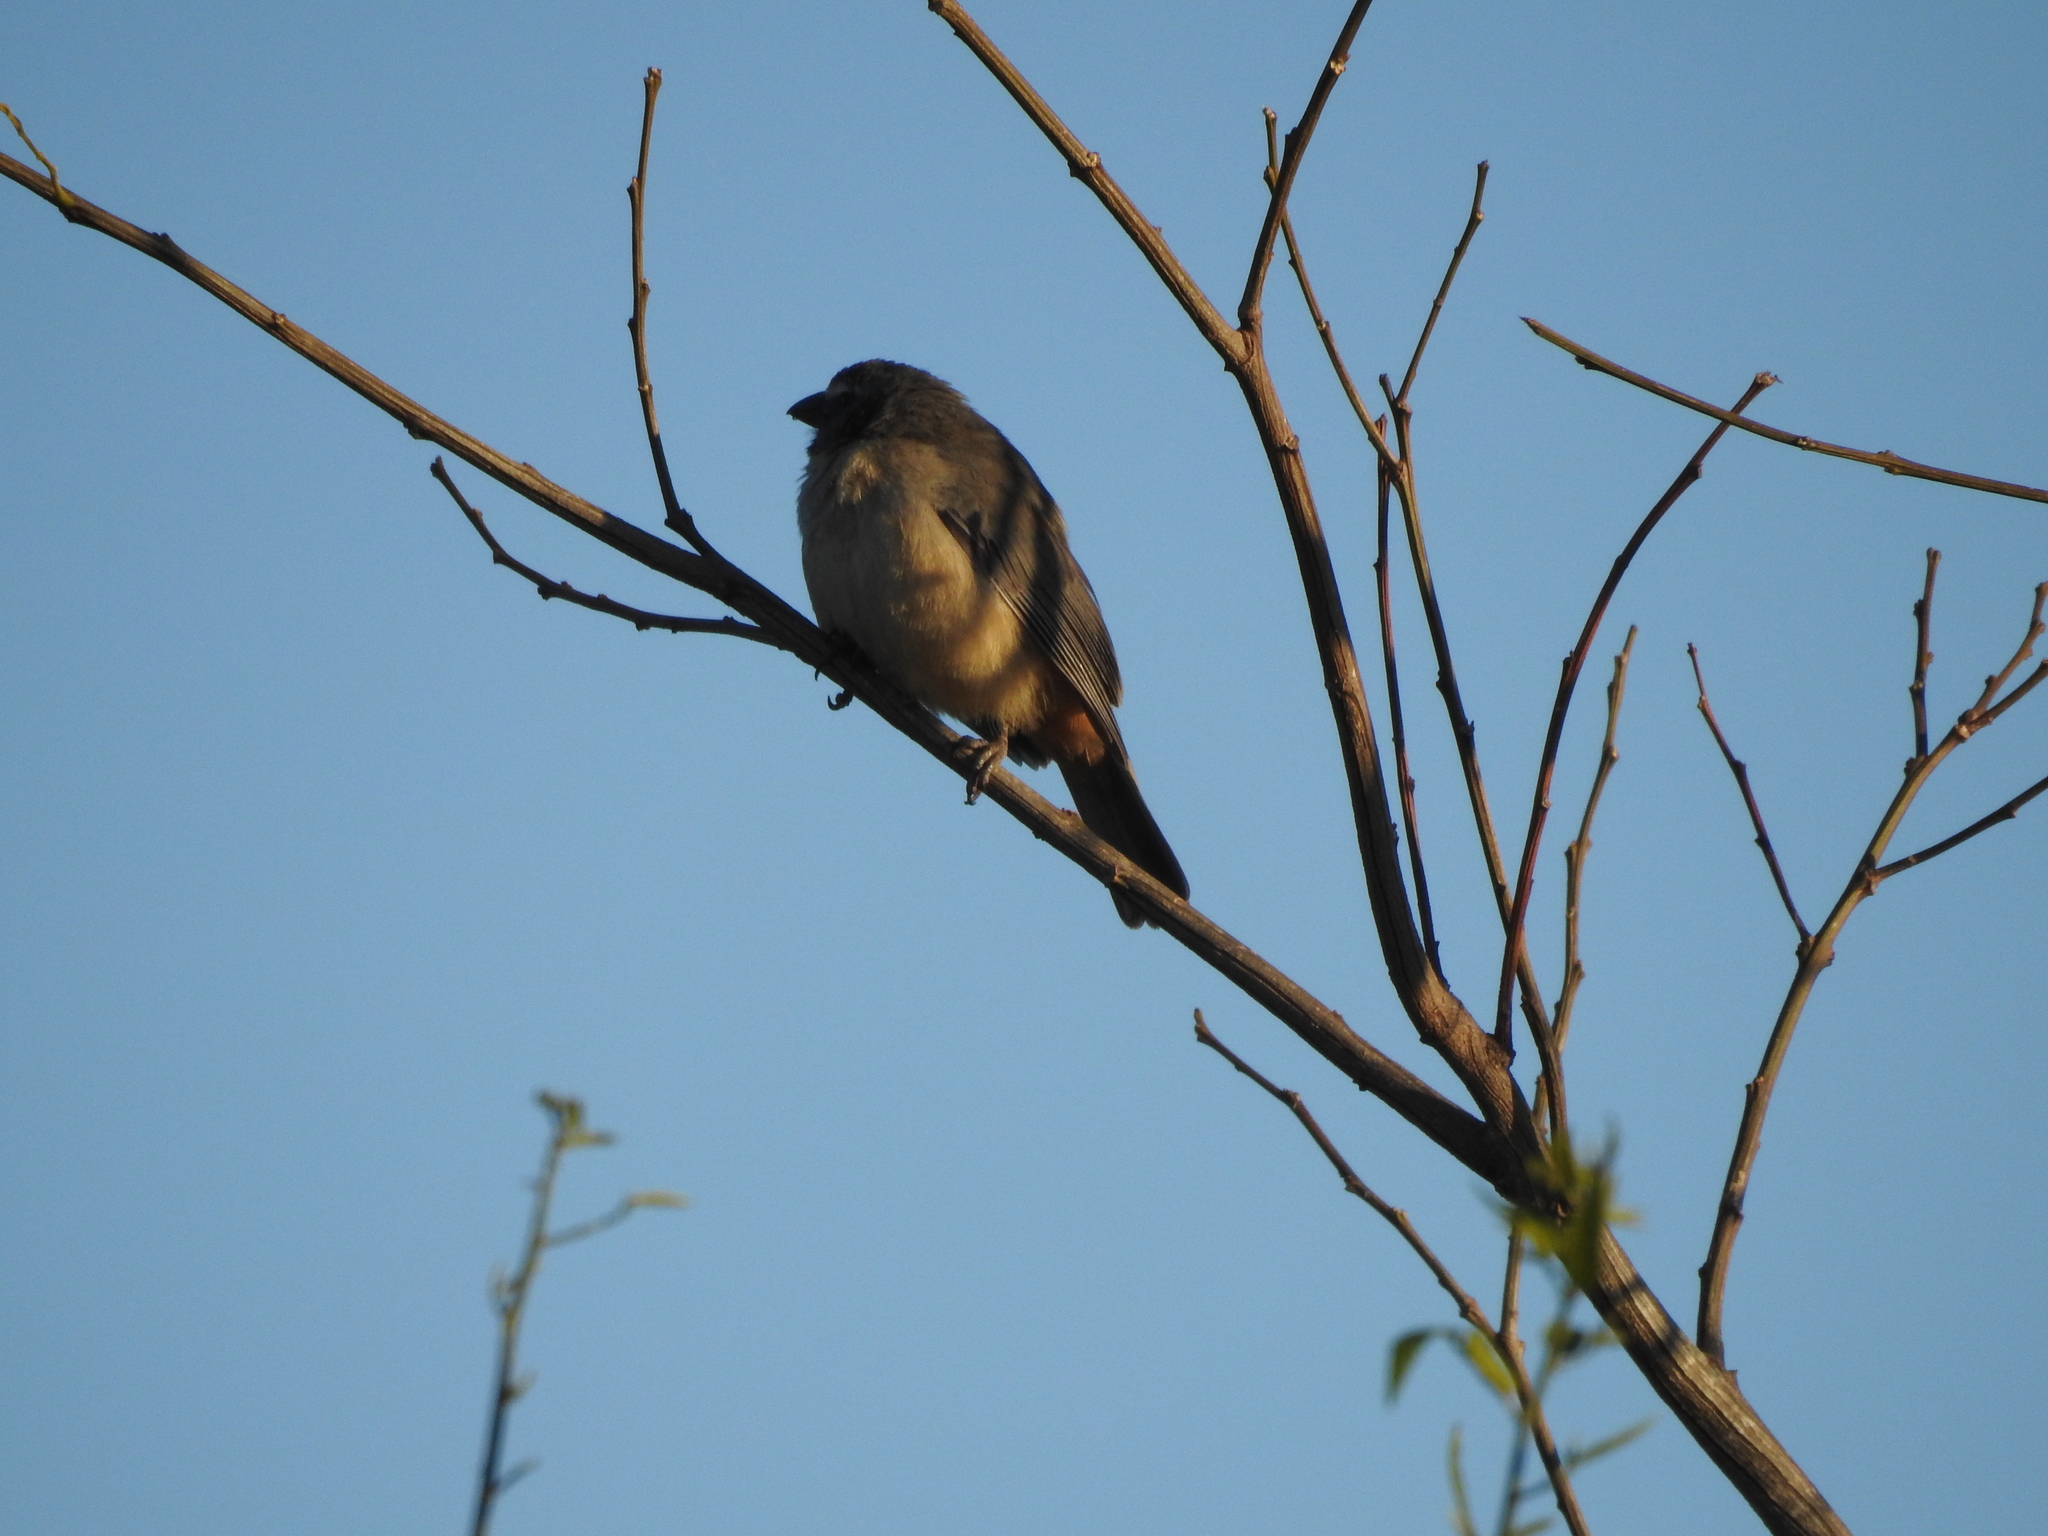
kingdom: Animalia
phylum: Chordata
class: Aves
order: Passeriformes
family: Thraupidae
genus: Saltator
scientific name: Saltator coerulescens
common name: Grayish saltator
